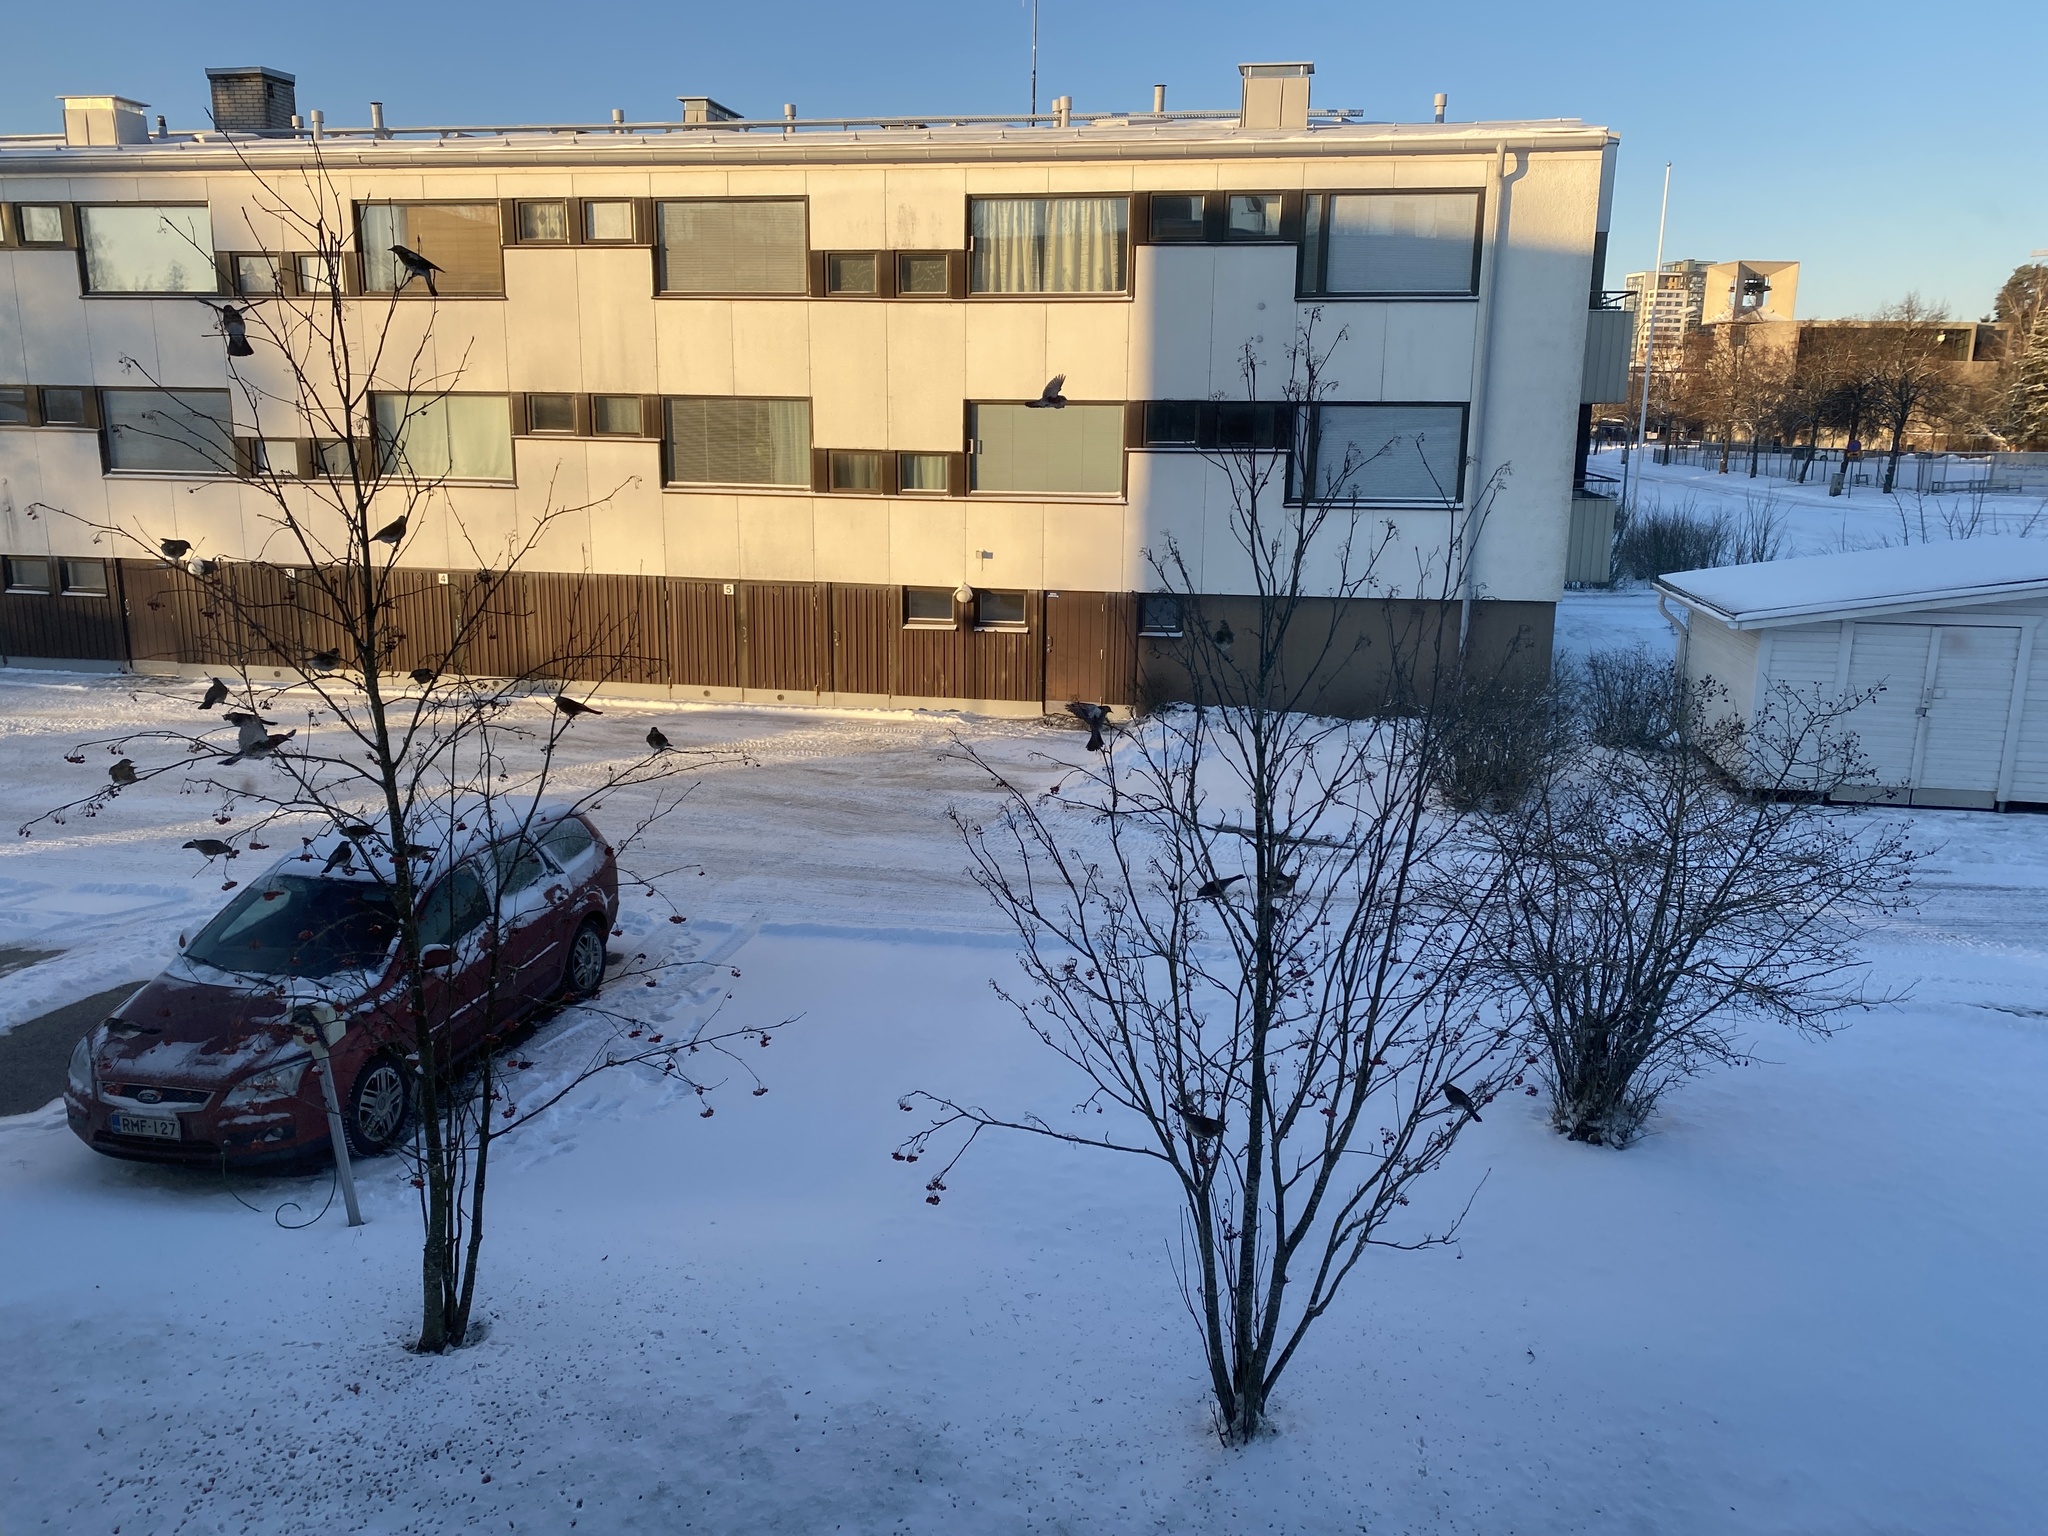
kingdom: Animalia
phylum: Chordata
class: Aves
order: Passeriformes
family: Turdidae
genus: Turdus
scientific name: Turdus pilaris
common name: Fieldfare
